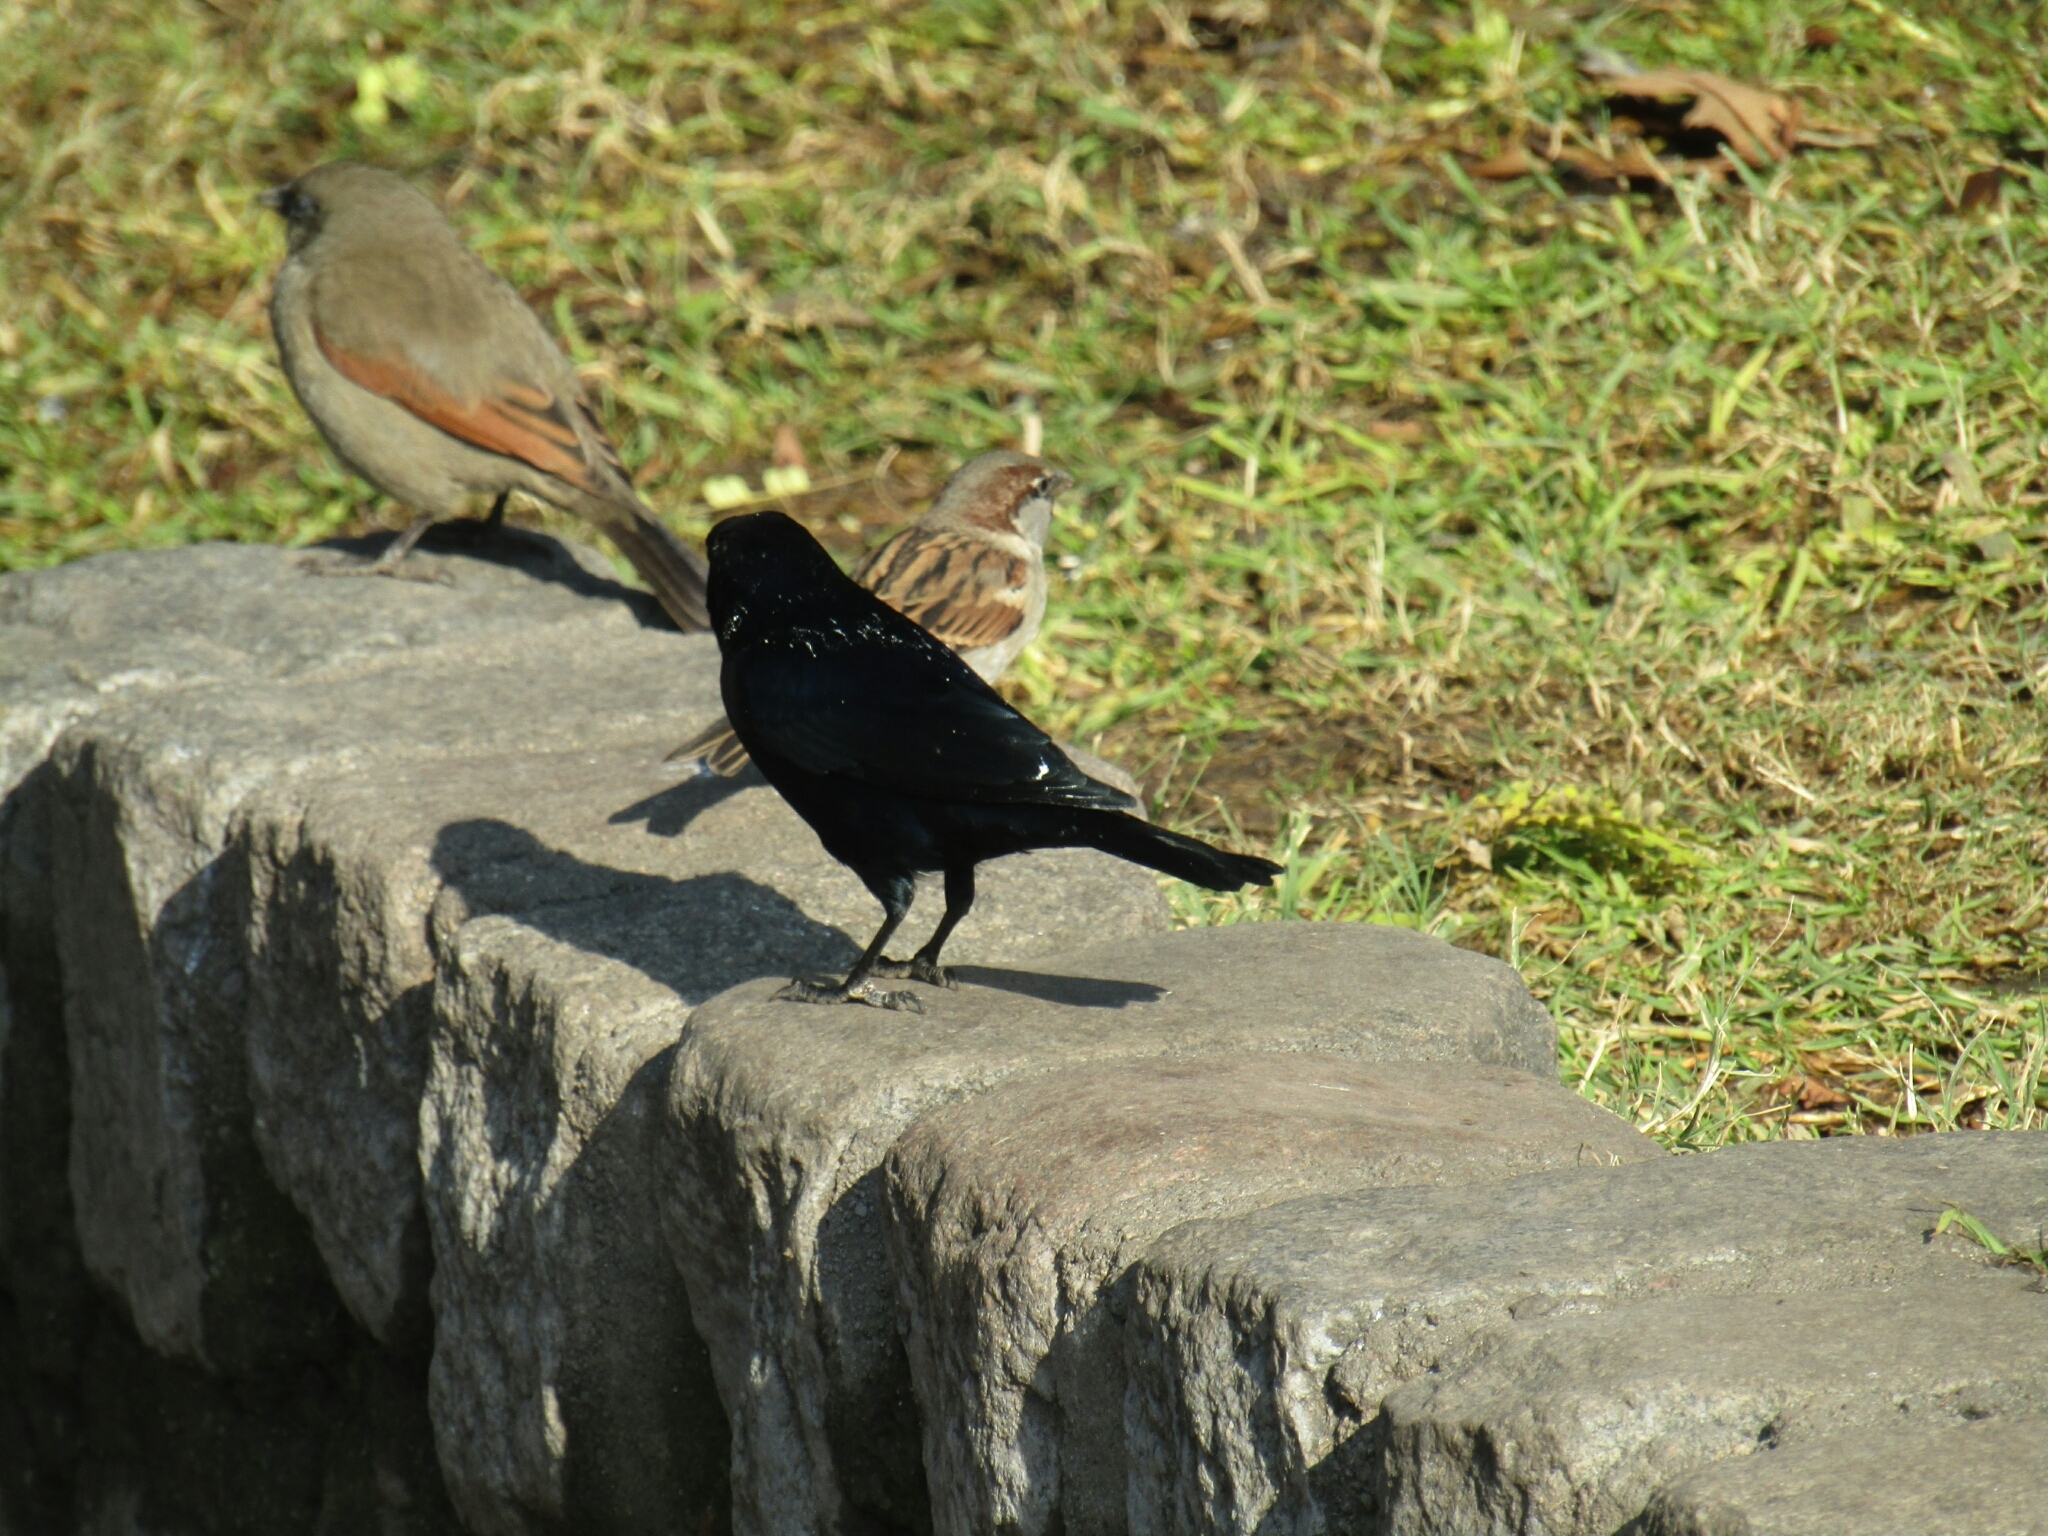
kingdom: Animalia
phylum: Chordata
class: Aves
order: Passeriformes
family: Icteridae
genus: Molothrus
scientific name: Molothrus bonariensis
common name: Shiny cowbird
